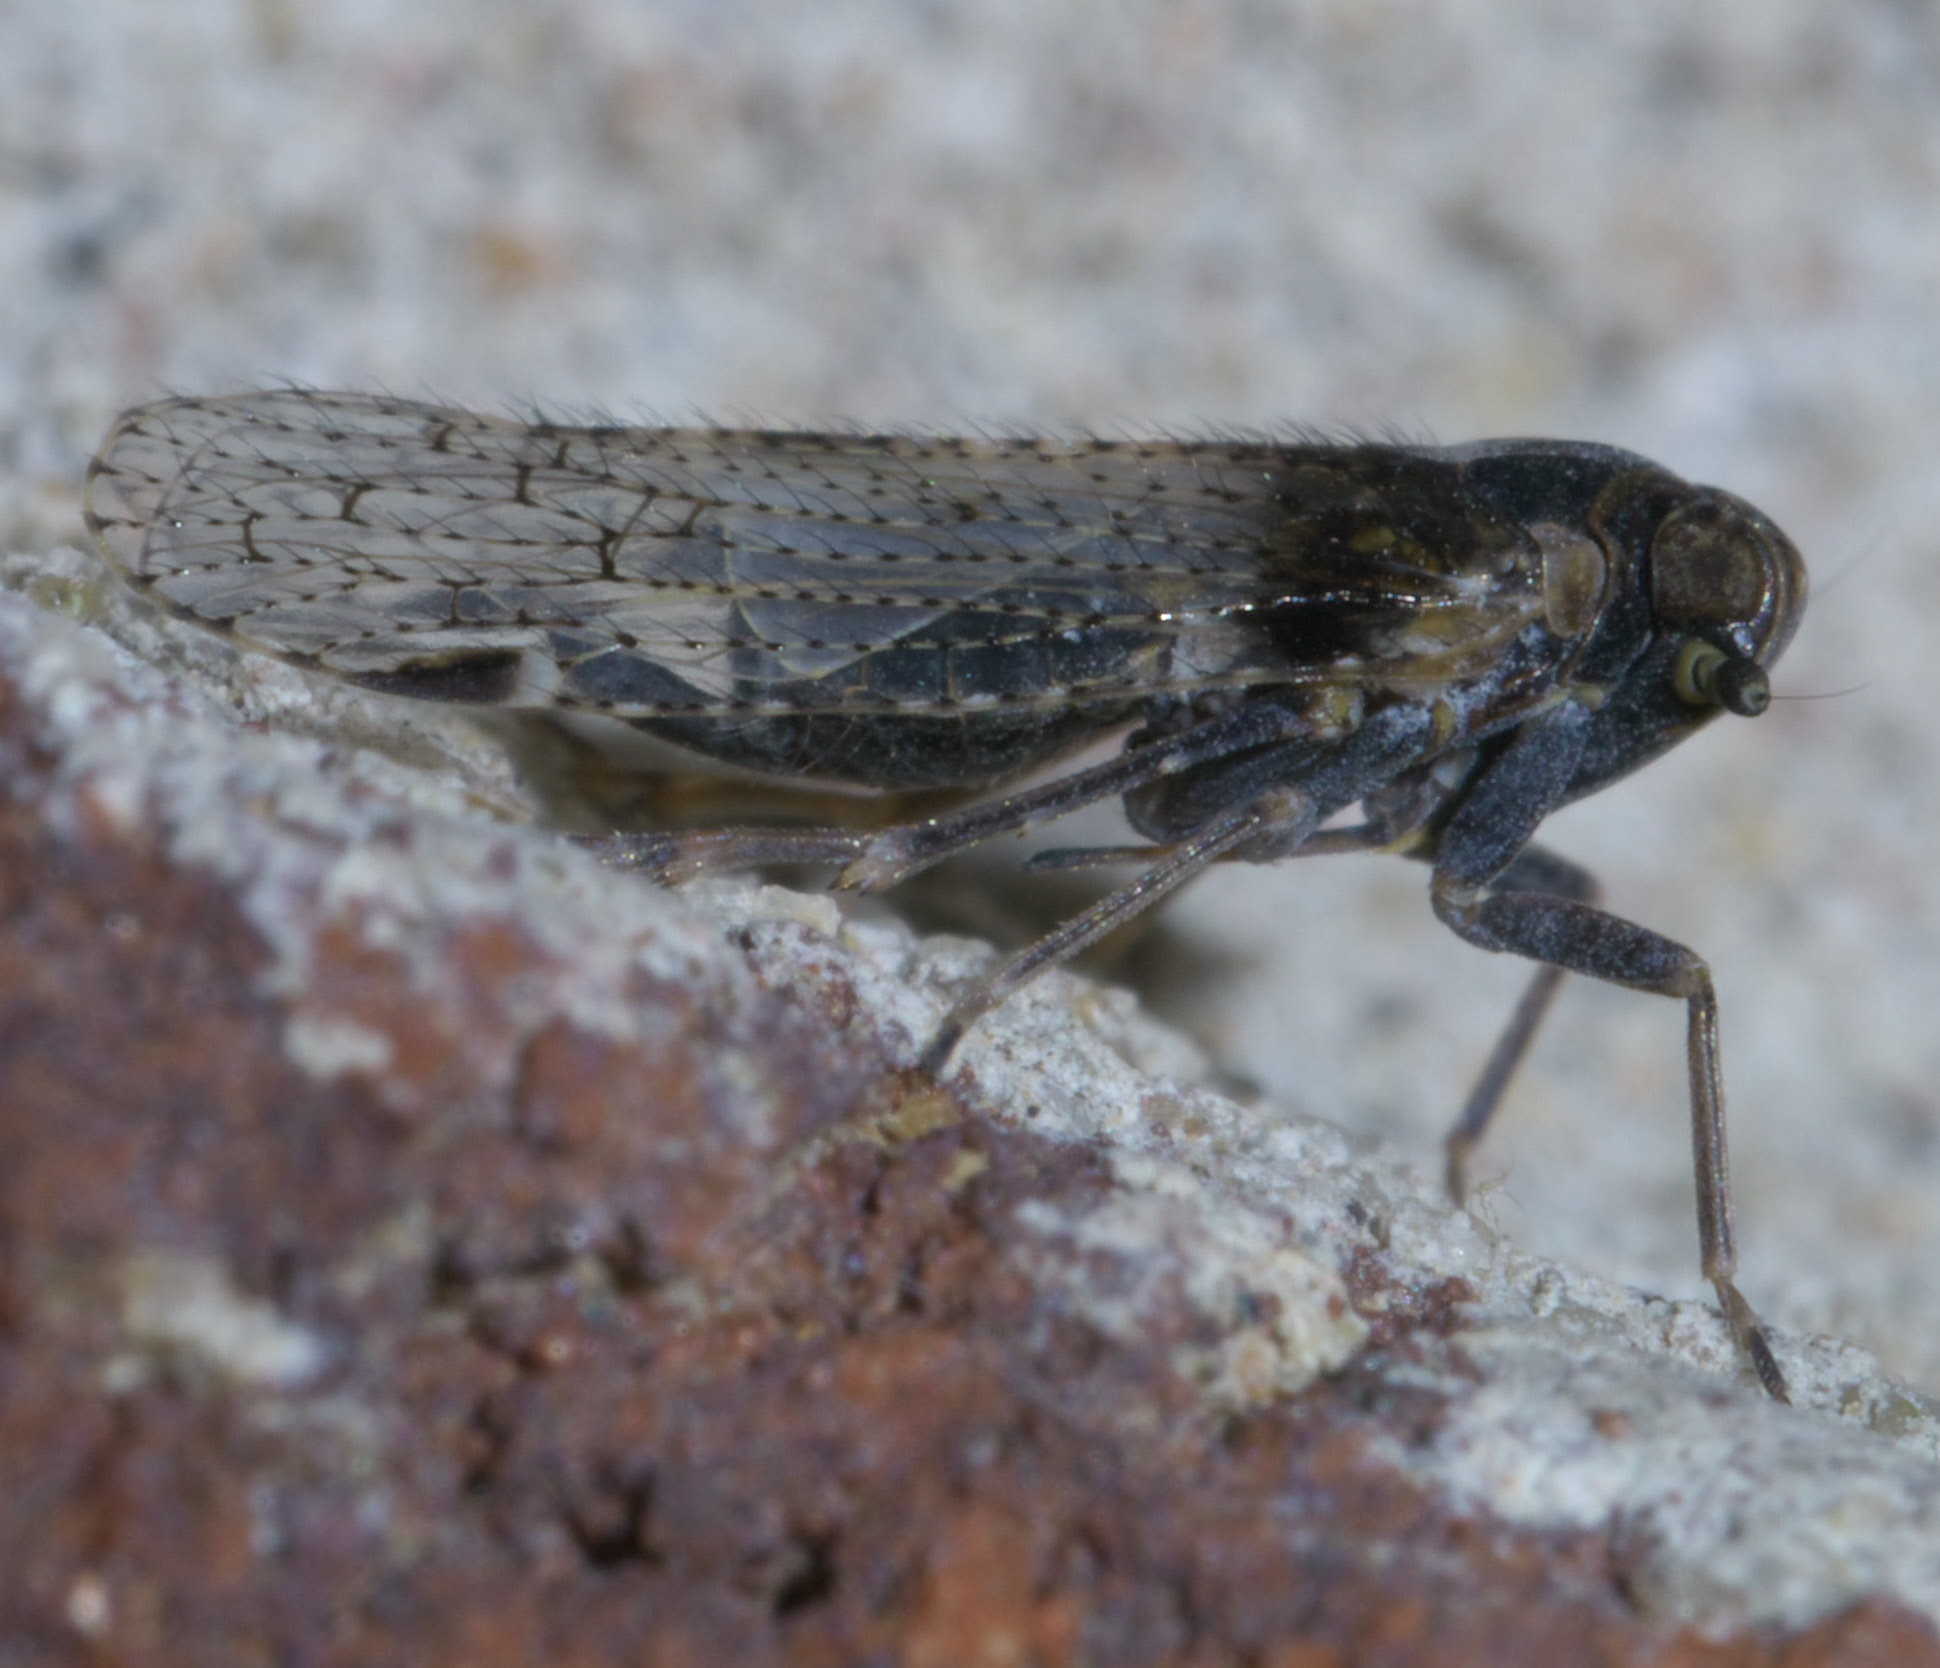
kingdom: Animalia
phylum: Arthropoda
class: Insecta
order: Hemiptera
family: Cixiidae
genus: Cixius
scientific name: Cixius stigmatus
